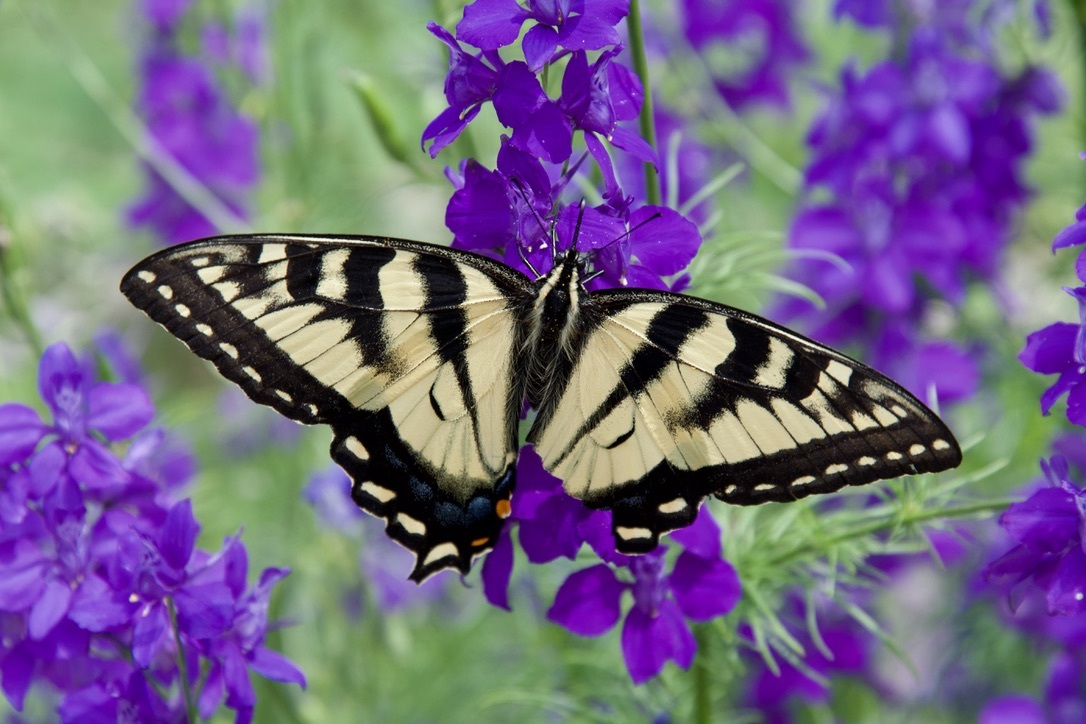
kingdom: Animalia
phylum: Arthropoda
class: Insecta
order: Lepidoptera
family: Papilionidae
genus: Papilio
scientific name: Papilio
